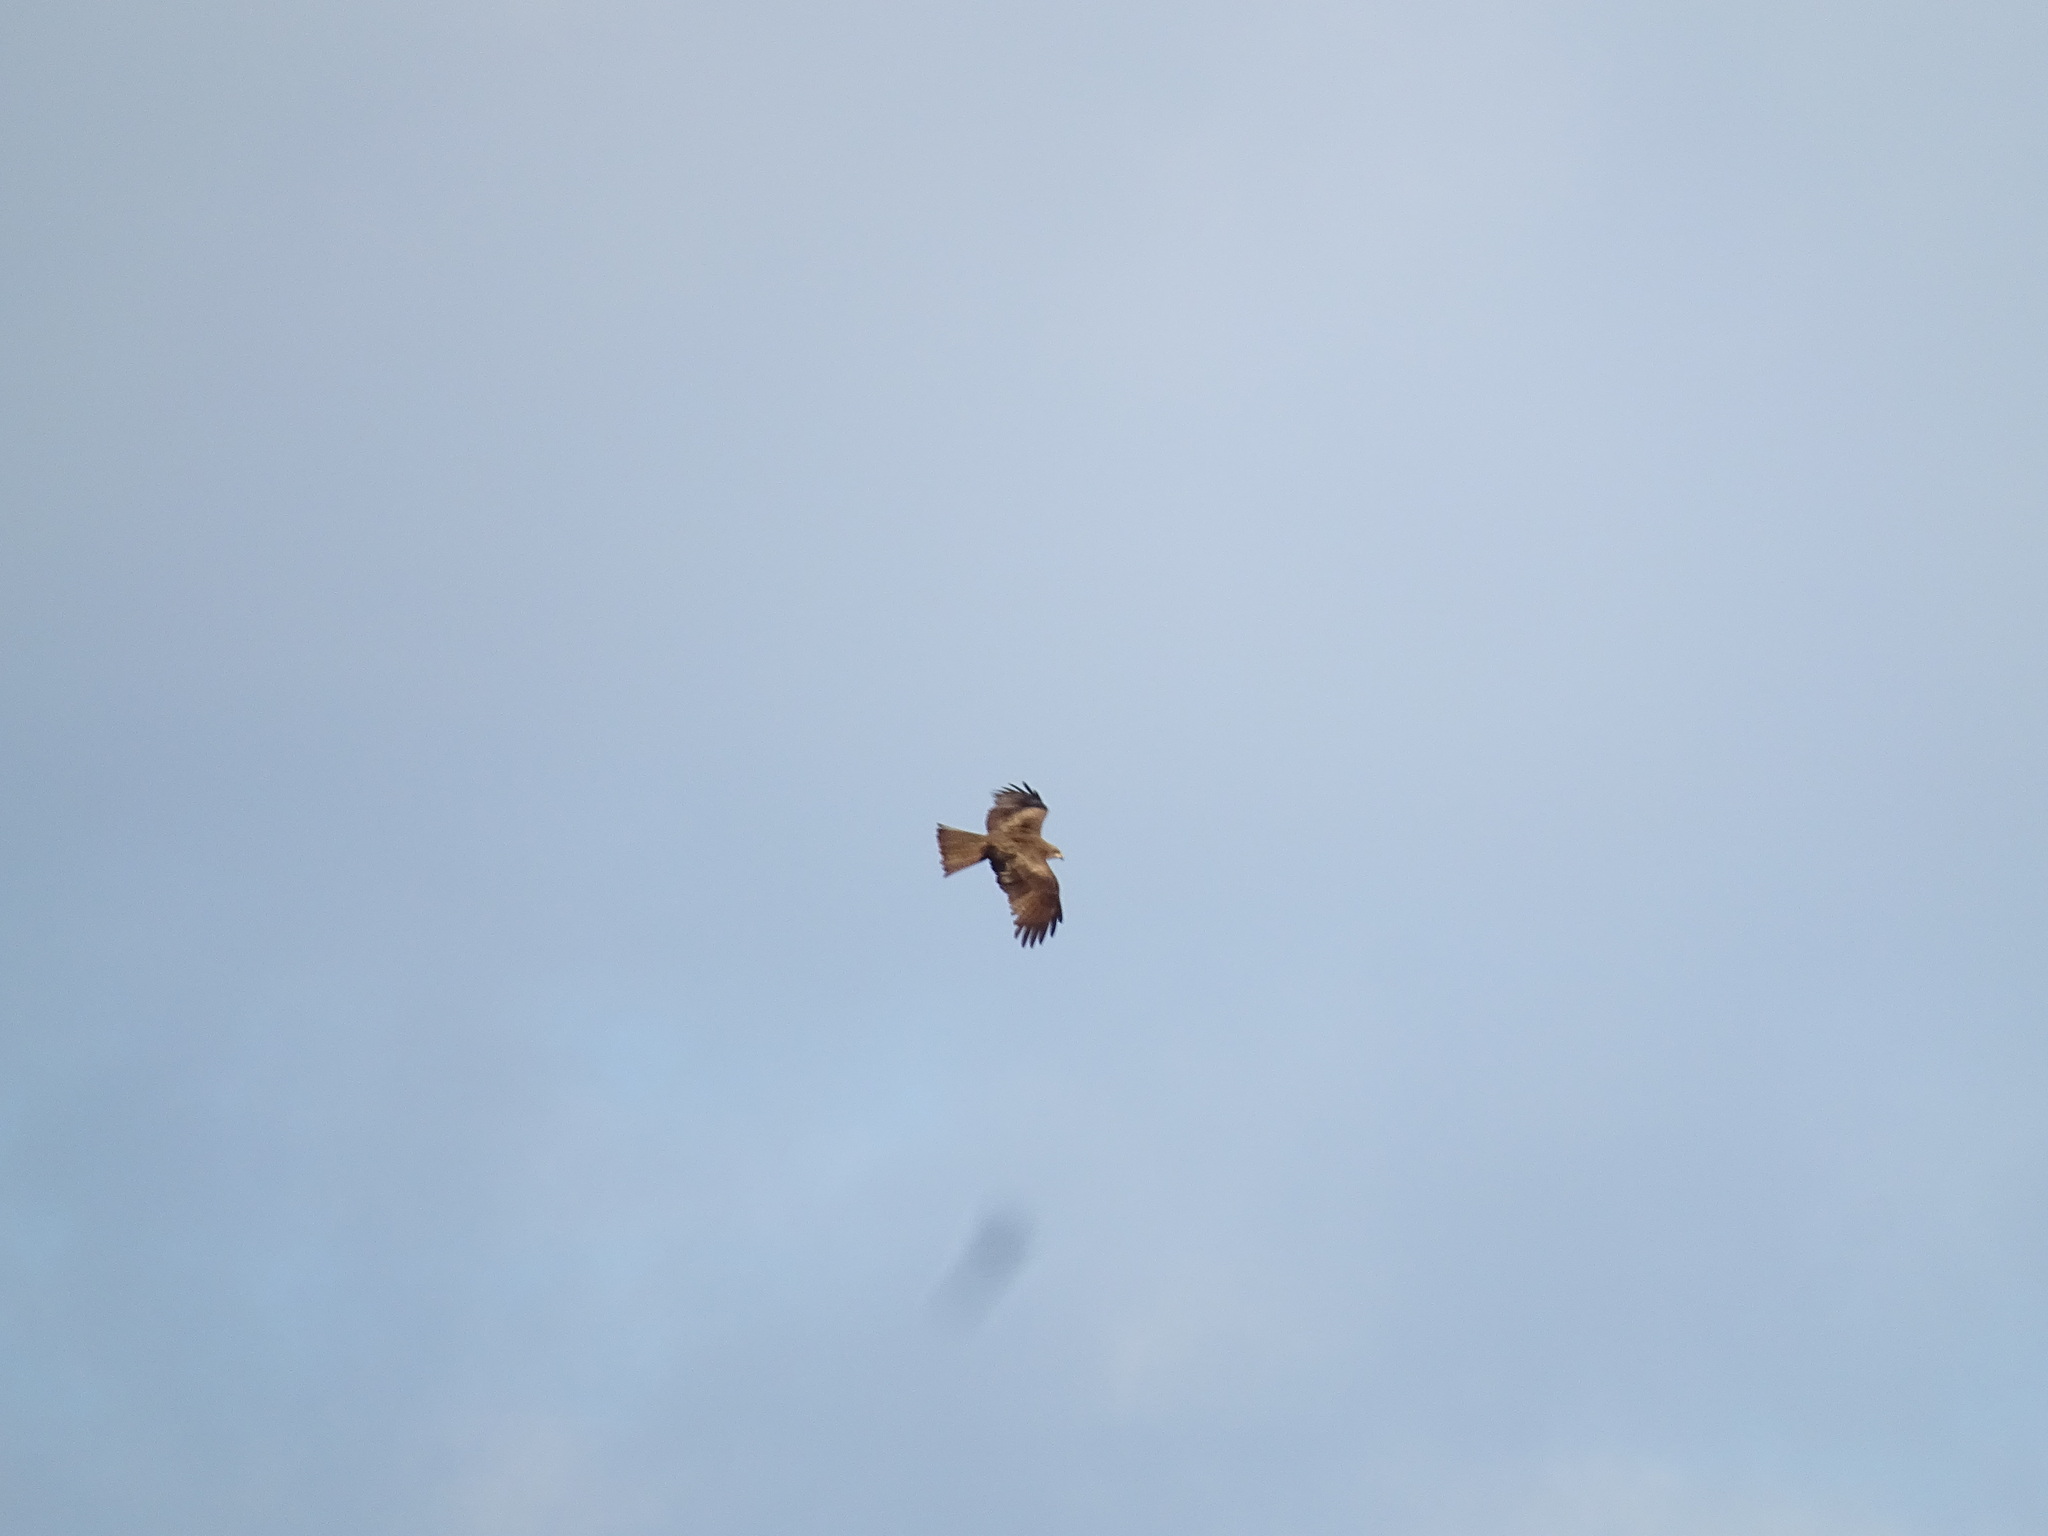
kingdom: Animalia
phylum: Chordata
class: Aves
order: Accipitriformes
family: Accipitridae
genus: Milvus
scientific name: Milvus migrans
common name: Black kite
